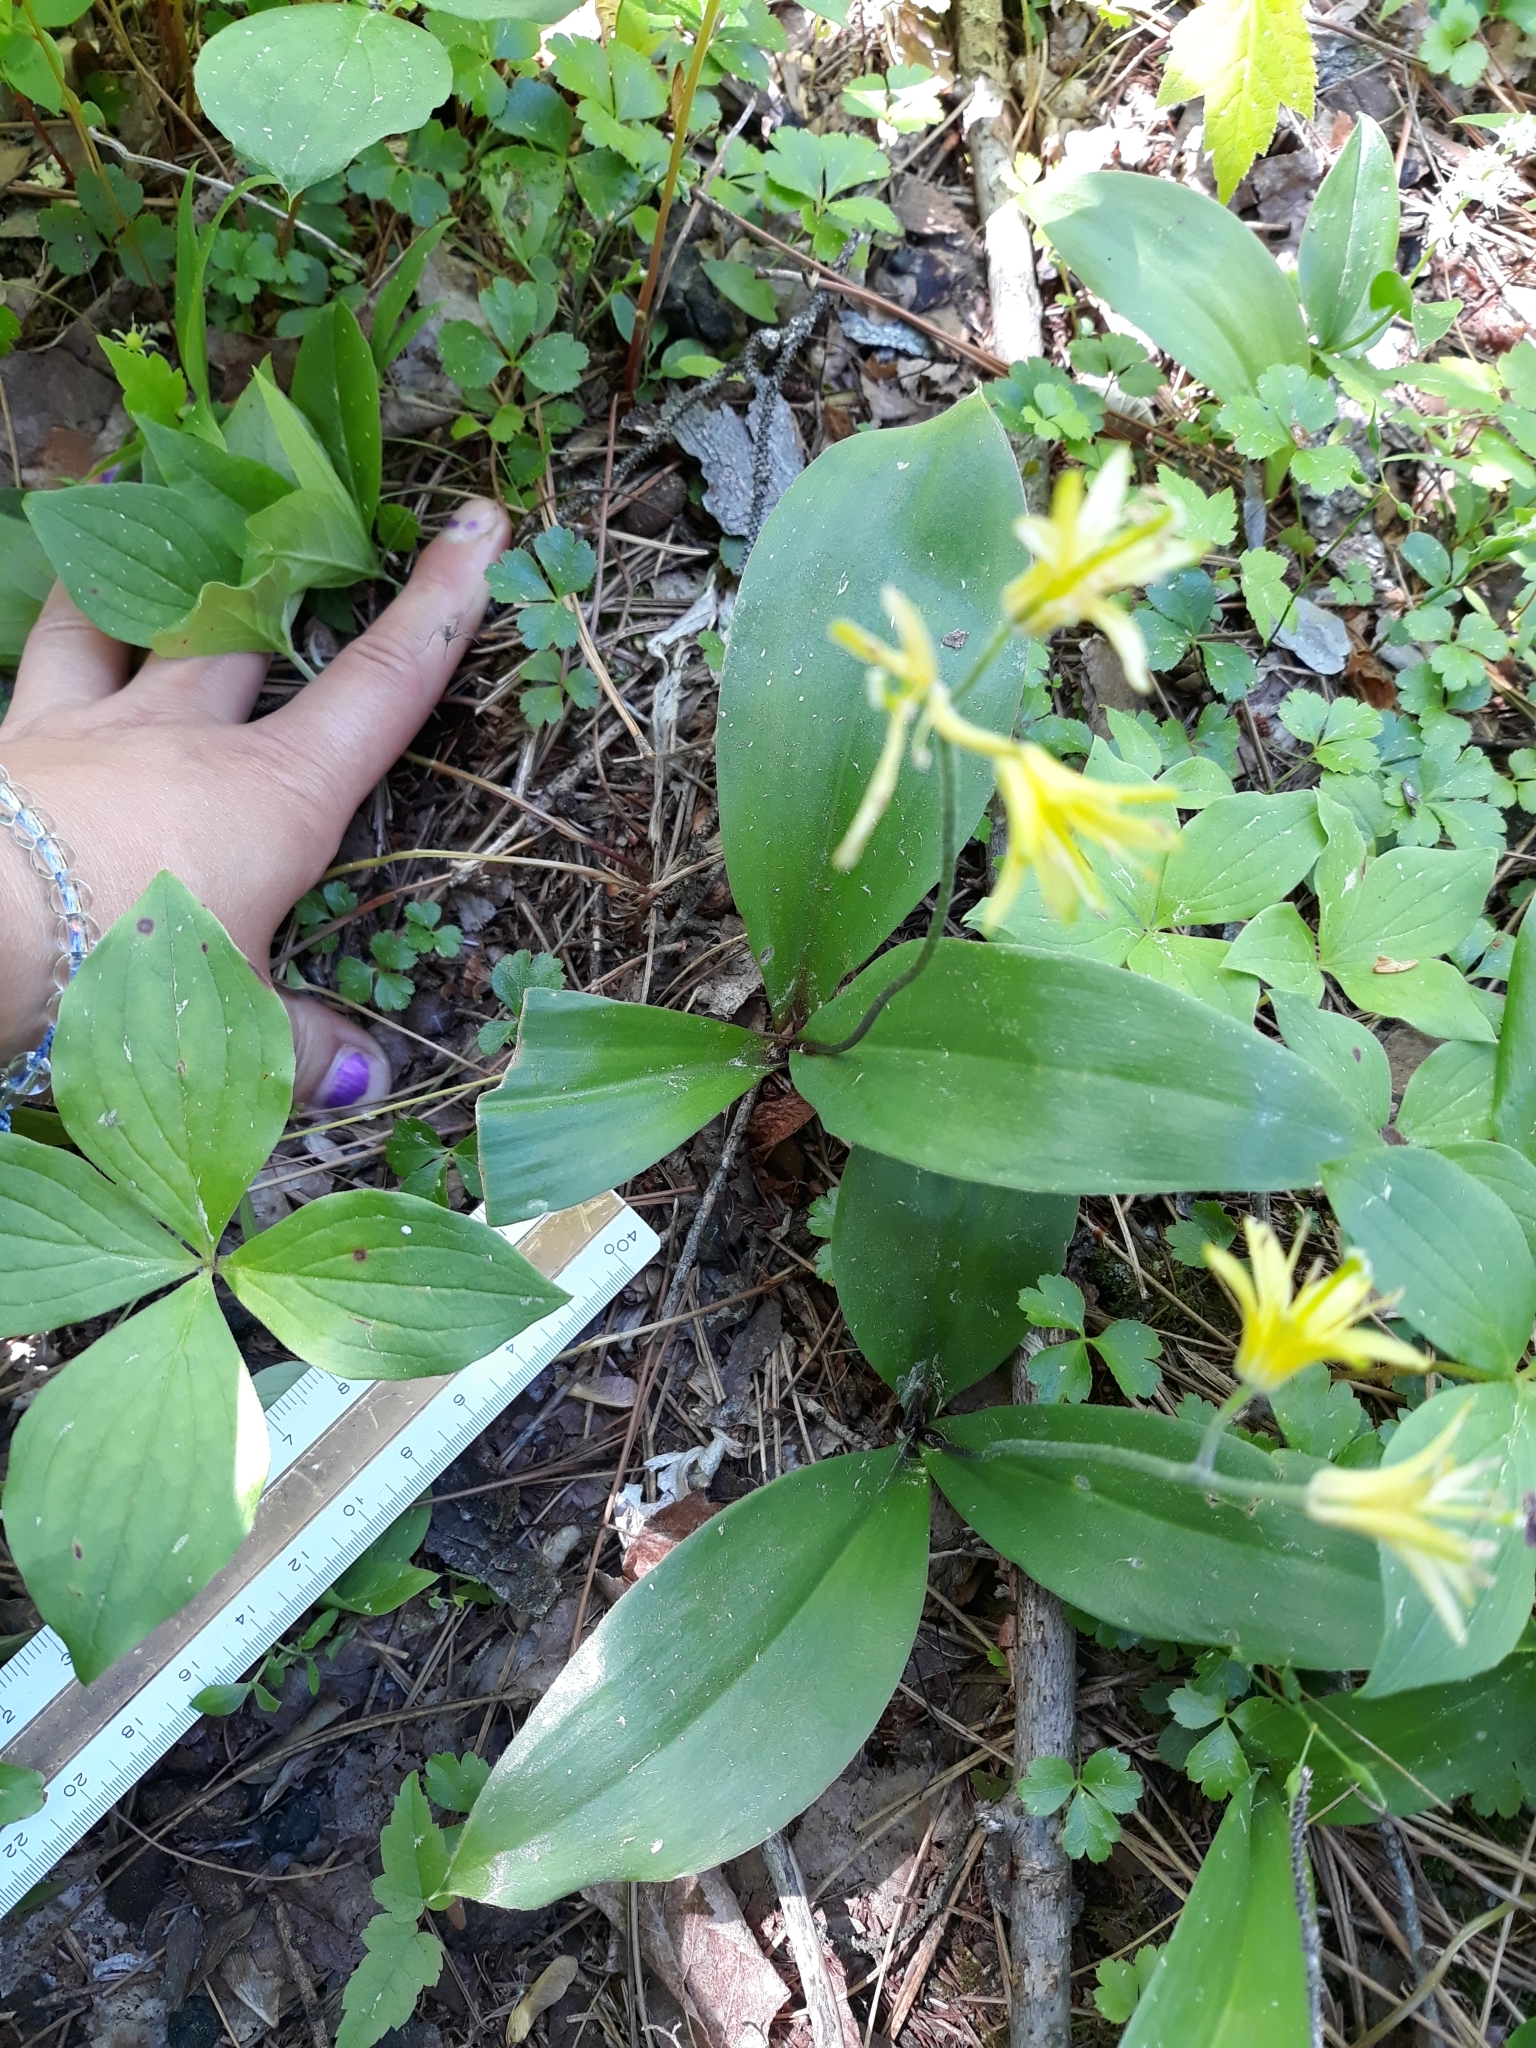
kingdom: Plantae
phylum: Tracheophyta
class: Liliopsida
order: Liliales
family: Liliaceae
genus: Clintonia
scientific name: Clintonia borealis
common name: Yellow clintonia
